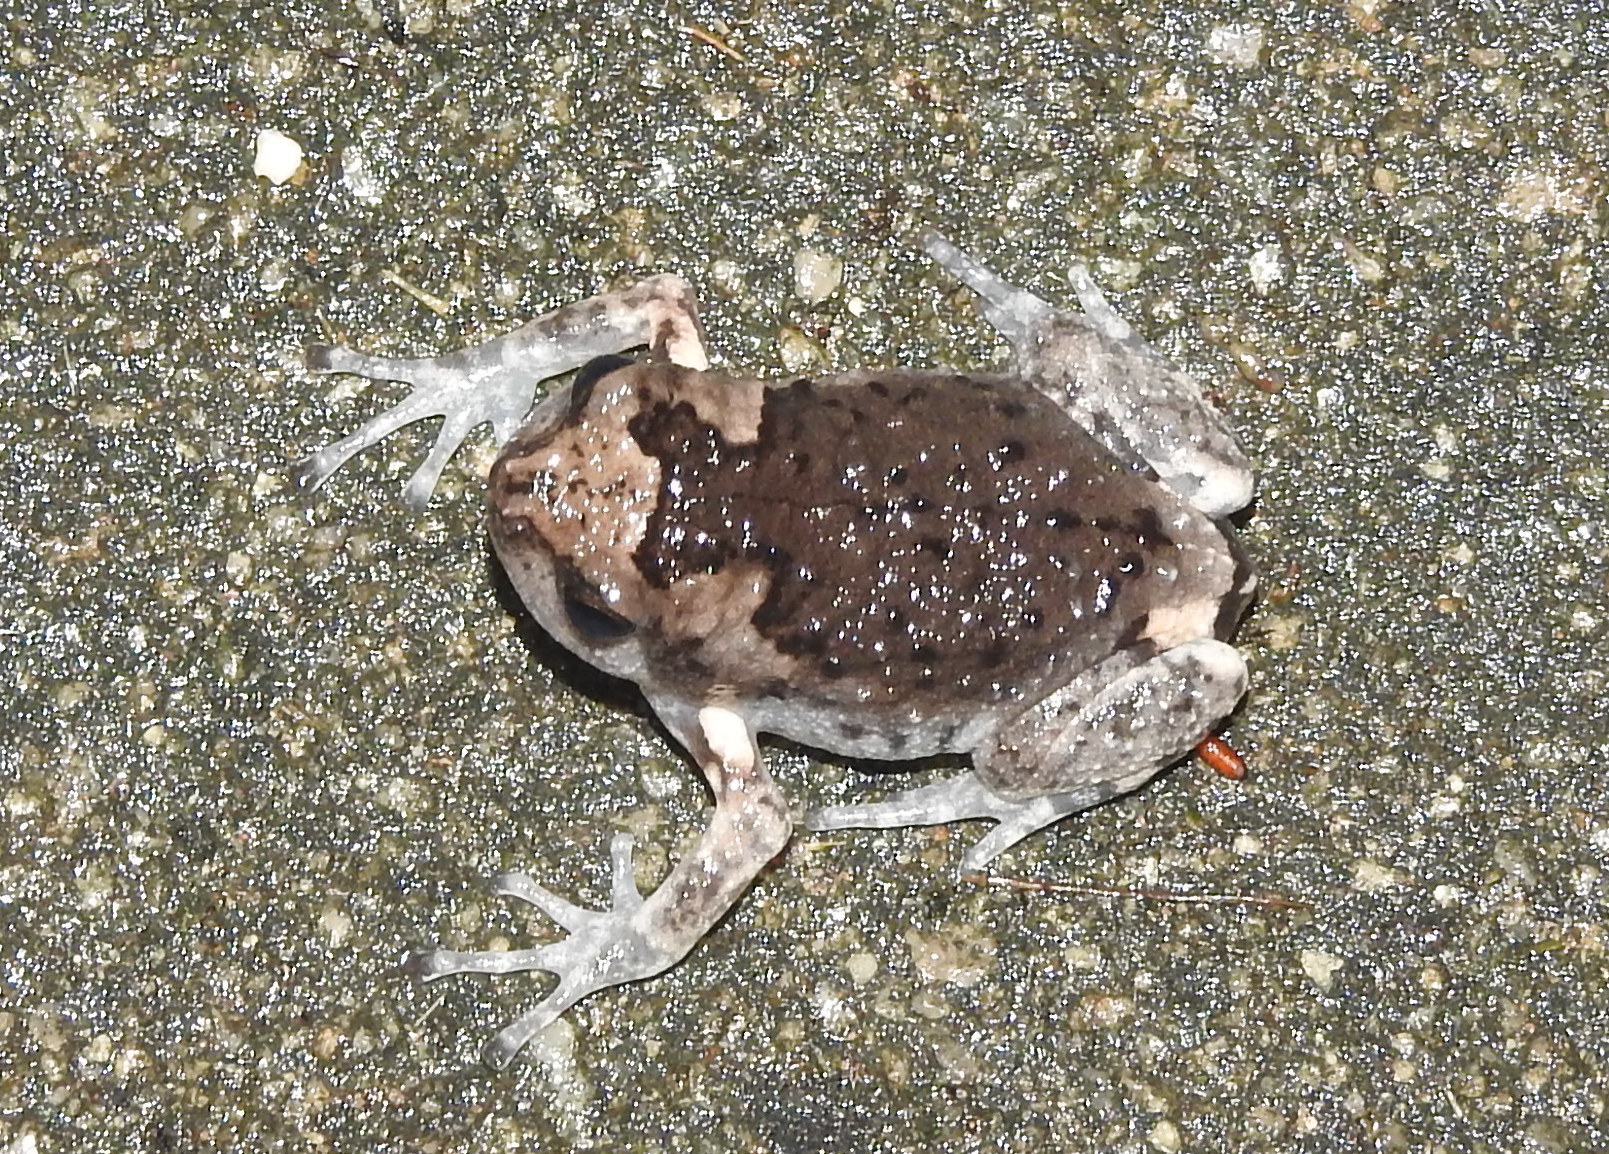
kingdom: Animalia
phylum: Chordata
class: Amphibia
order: Anura
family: Microhylidae
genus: Kaloula
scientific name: Kaloula pulchra
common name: Common,banded bullfrog
